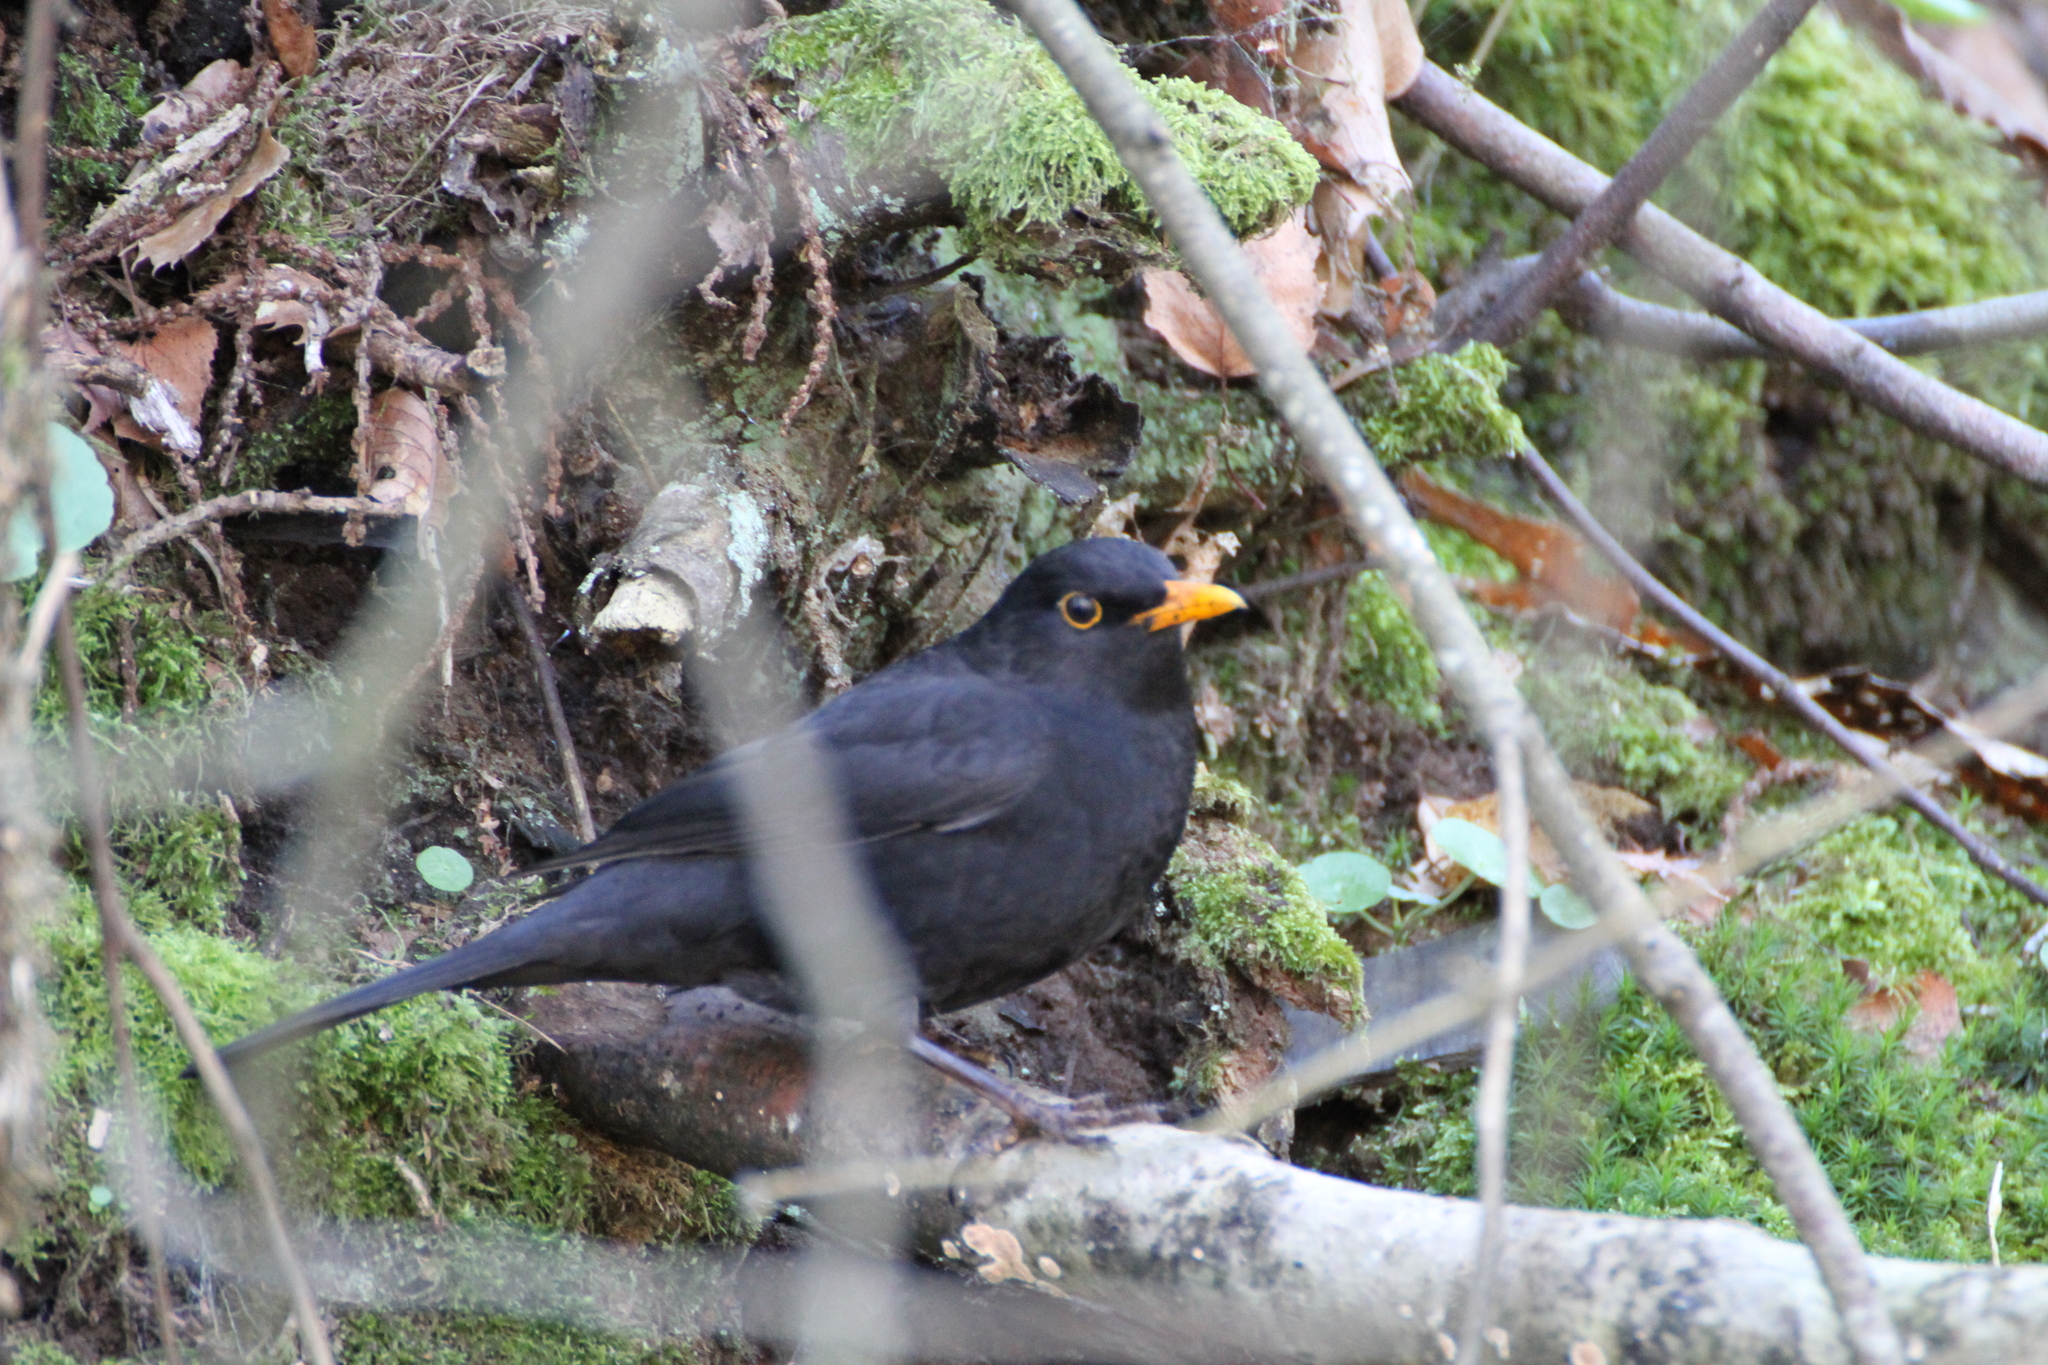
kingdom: Animalia
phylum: Chordata
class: Aves
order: Passeriformes
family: Turdidae
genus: Turdus
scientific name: Turdus merula
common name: Common blackbird
